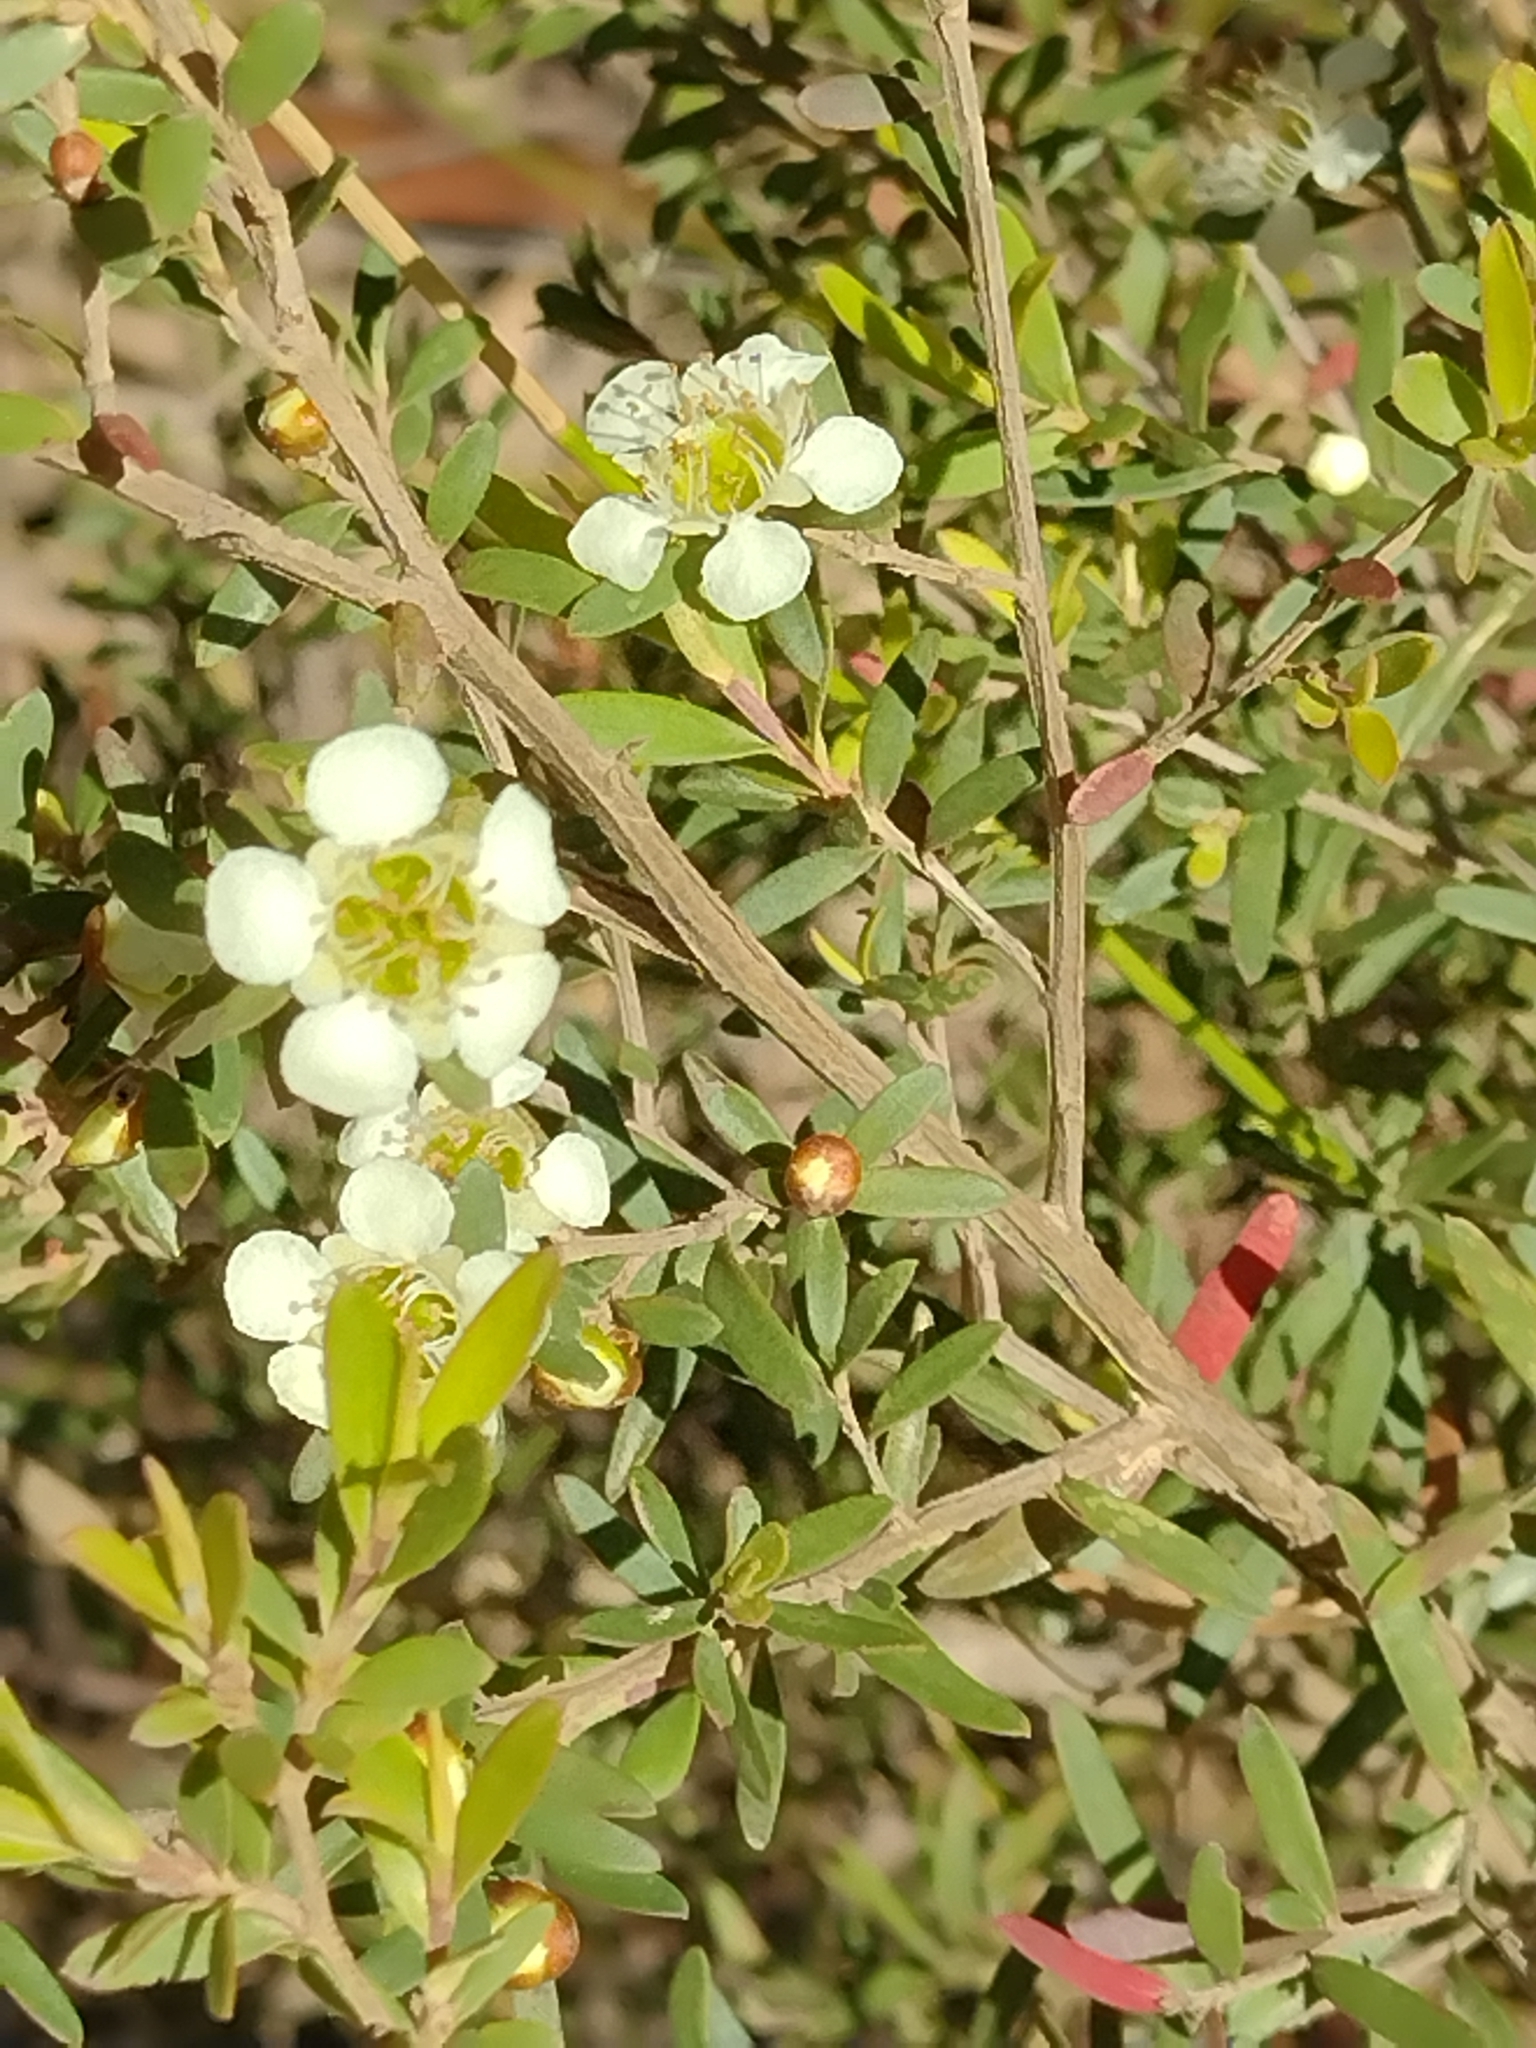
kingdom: Plantae
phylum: Tracheophyta
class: Magnoliopsida
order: Myrtales
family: Myrtaceae
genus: Leptospermum
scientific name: Leptospermum polygalifolium
